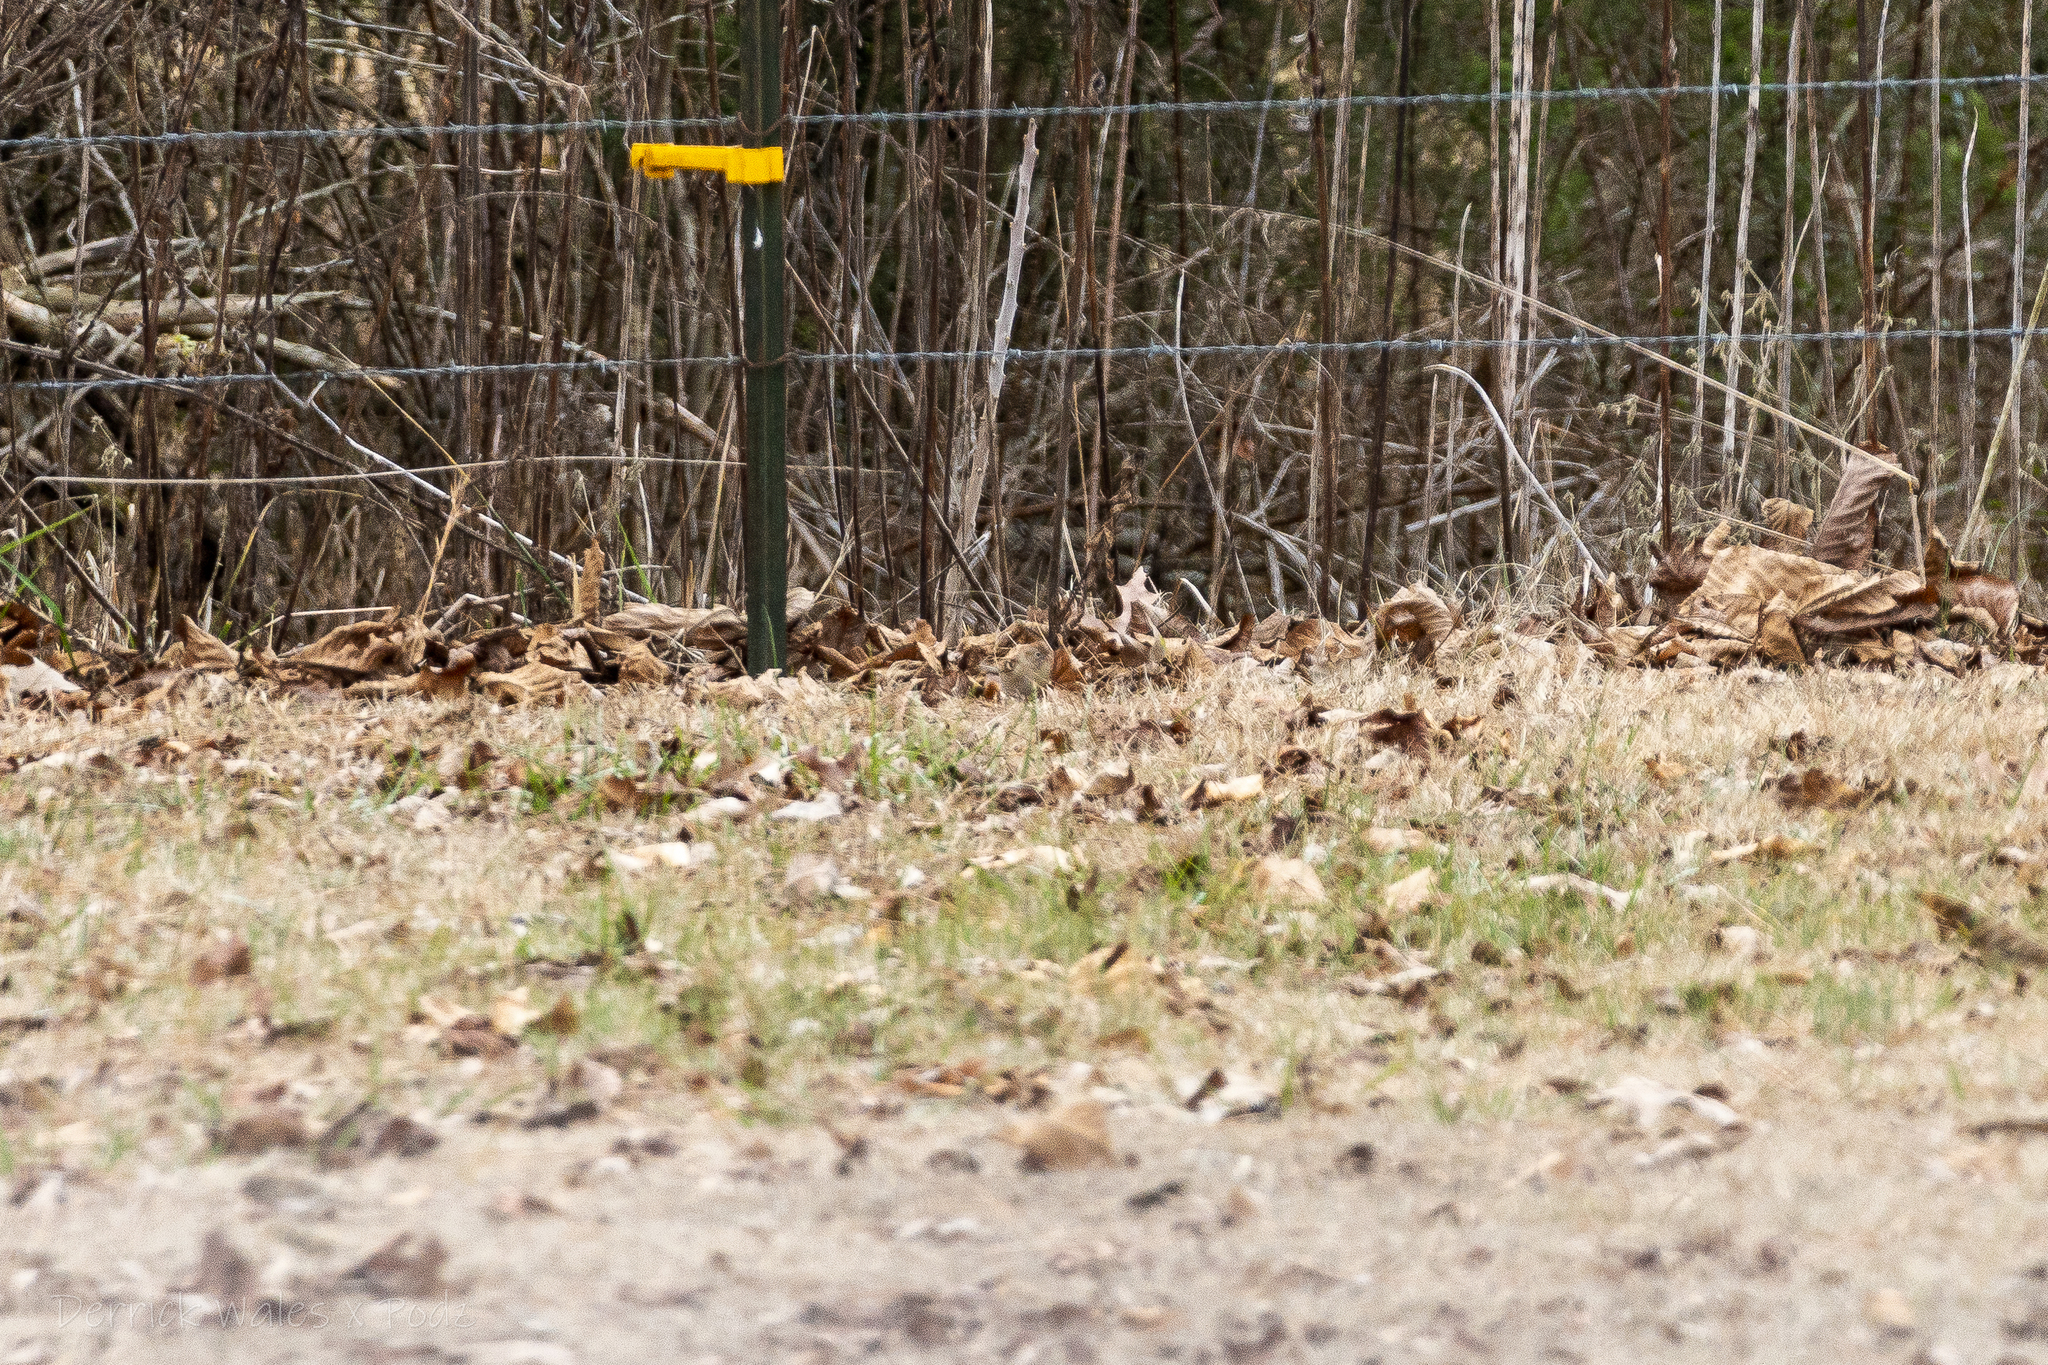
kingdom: Animalia
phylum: Chordata
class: Aves
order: Passeriformes
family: Passerellidae
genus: Spizella
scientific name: Spizella pusilla
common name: Field sparrow
